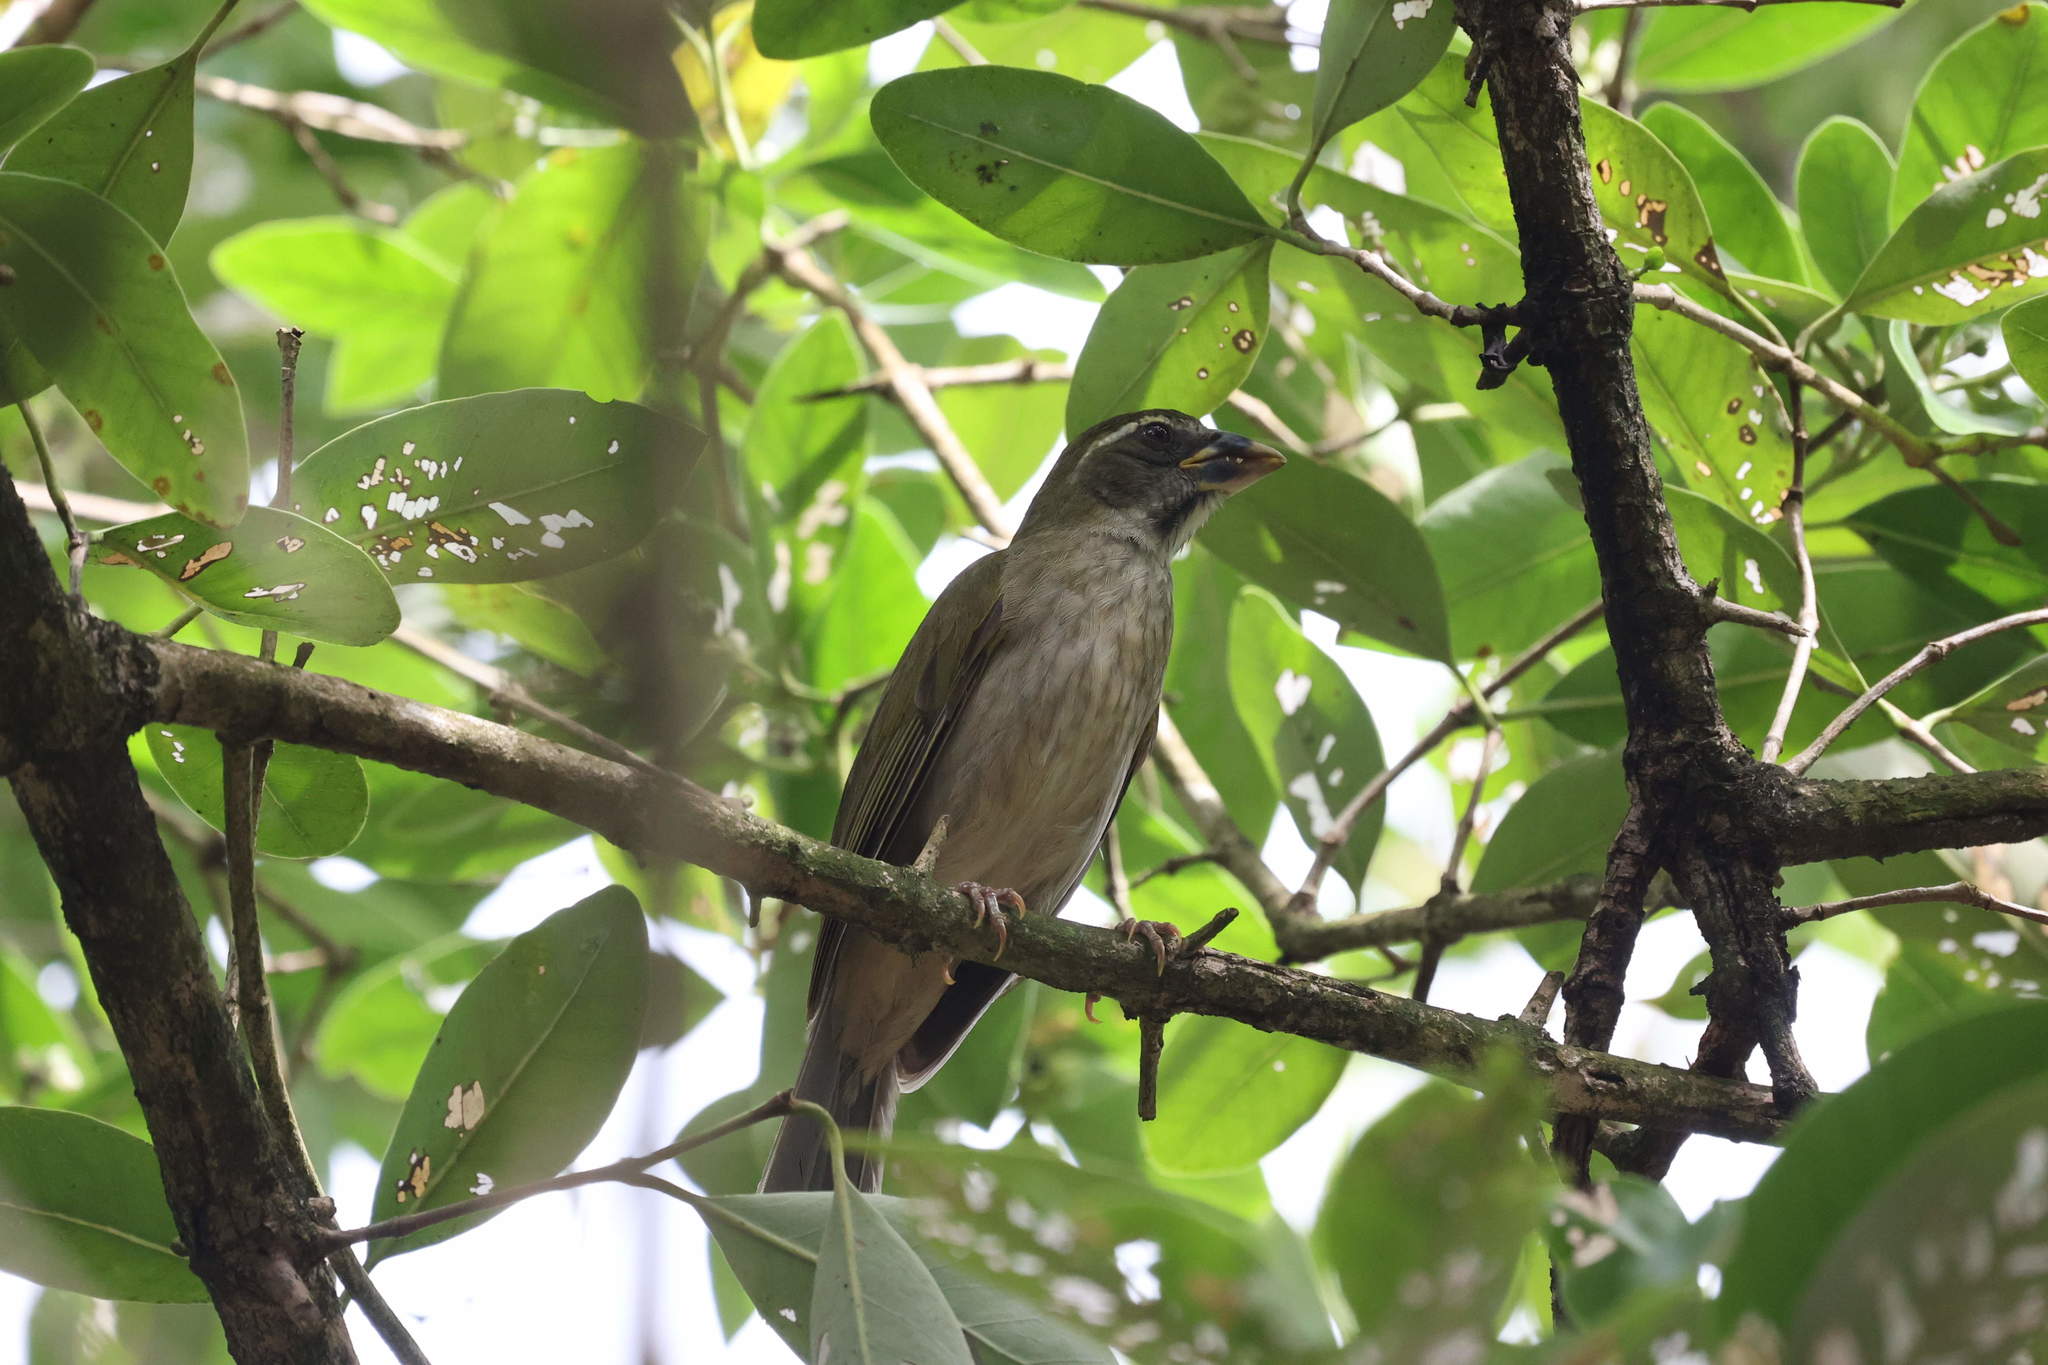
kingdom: Animalia
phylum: Chordata
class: Aves
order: Passeriformes
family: Thraupidae
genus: Saltator
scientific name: Saltator albicollis
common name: Lesser antillean saltator
